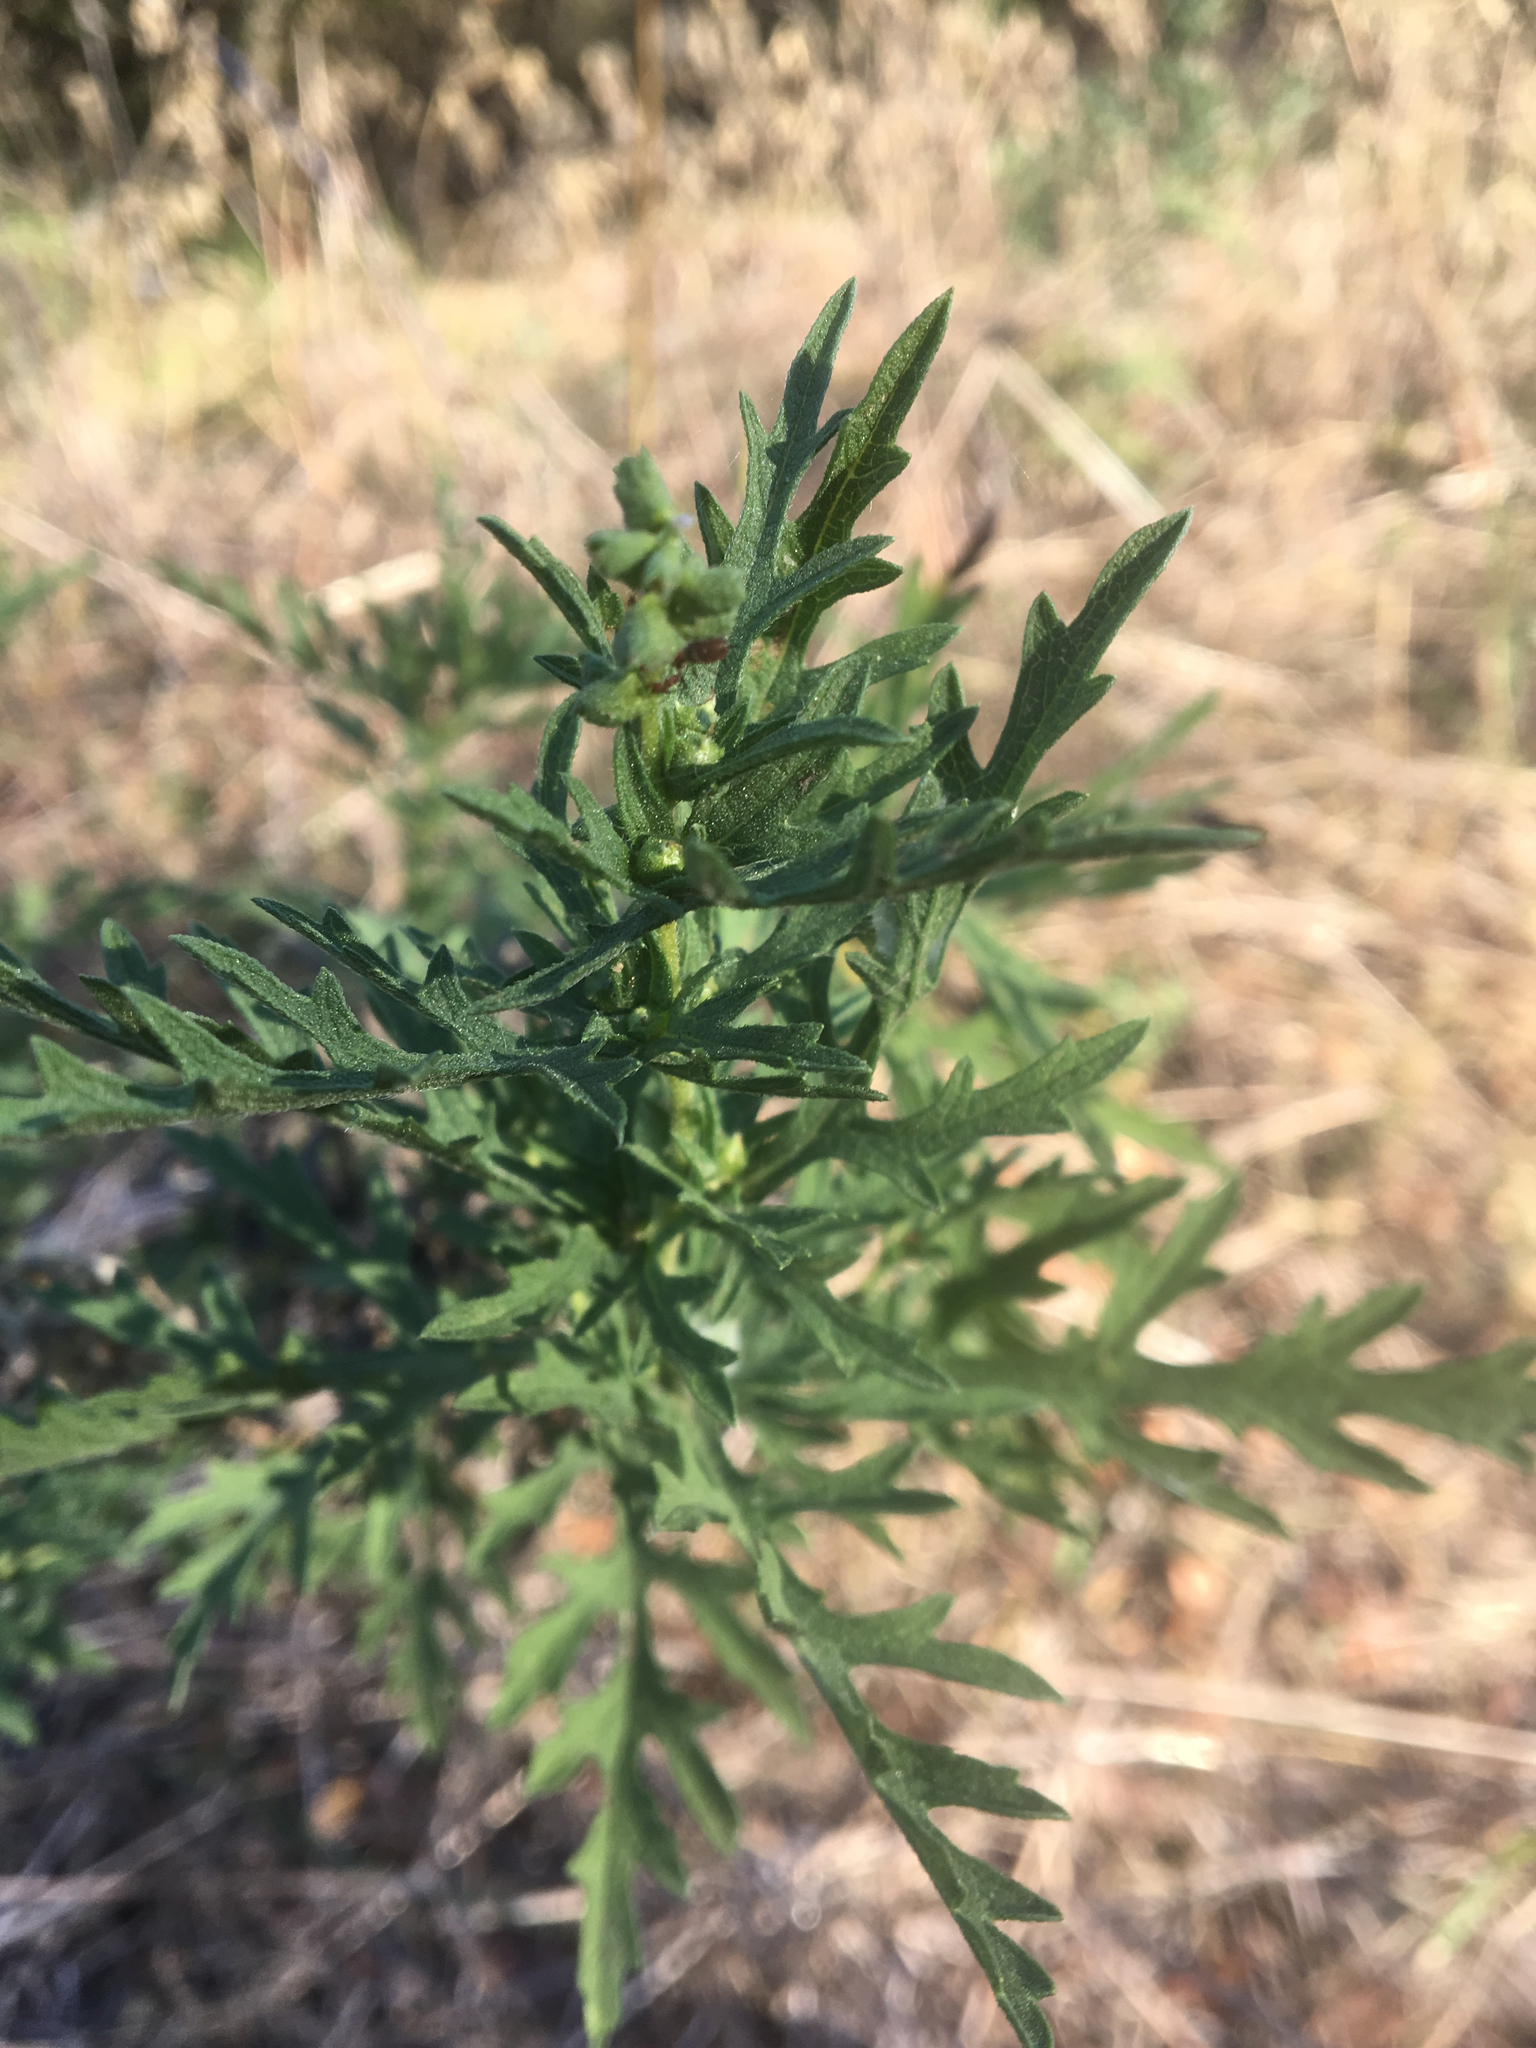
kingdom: Plantae
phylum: Tracheophyta
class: Magnoliopsida
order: Asterales
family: Asteraceae
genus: Ambrosia
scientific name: Ambrosia psilostachya
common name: Perennial ragweed
